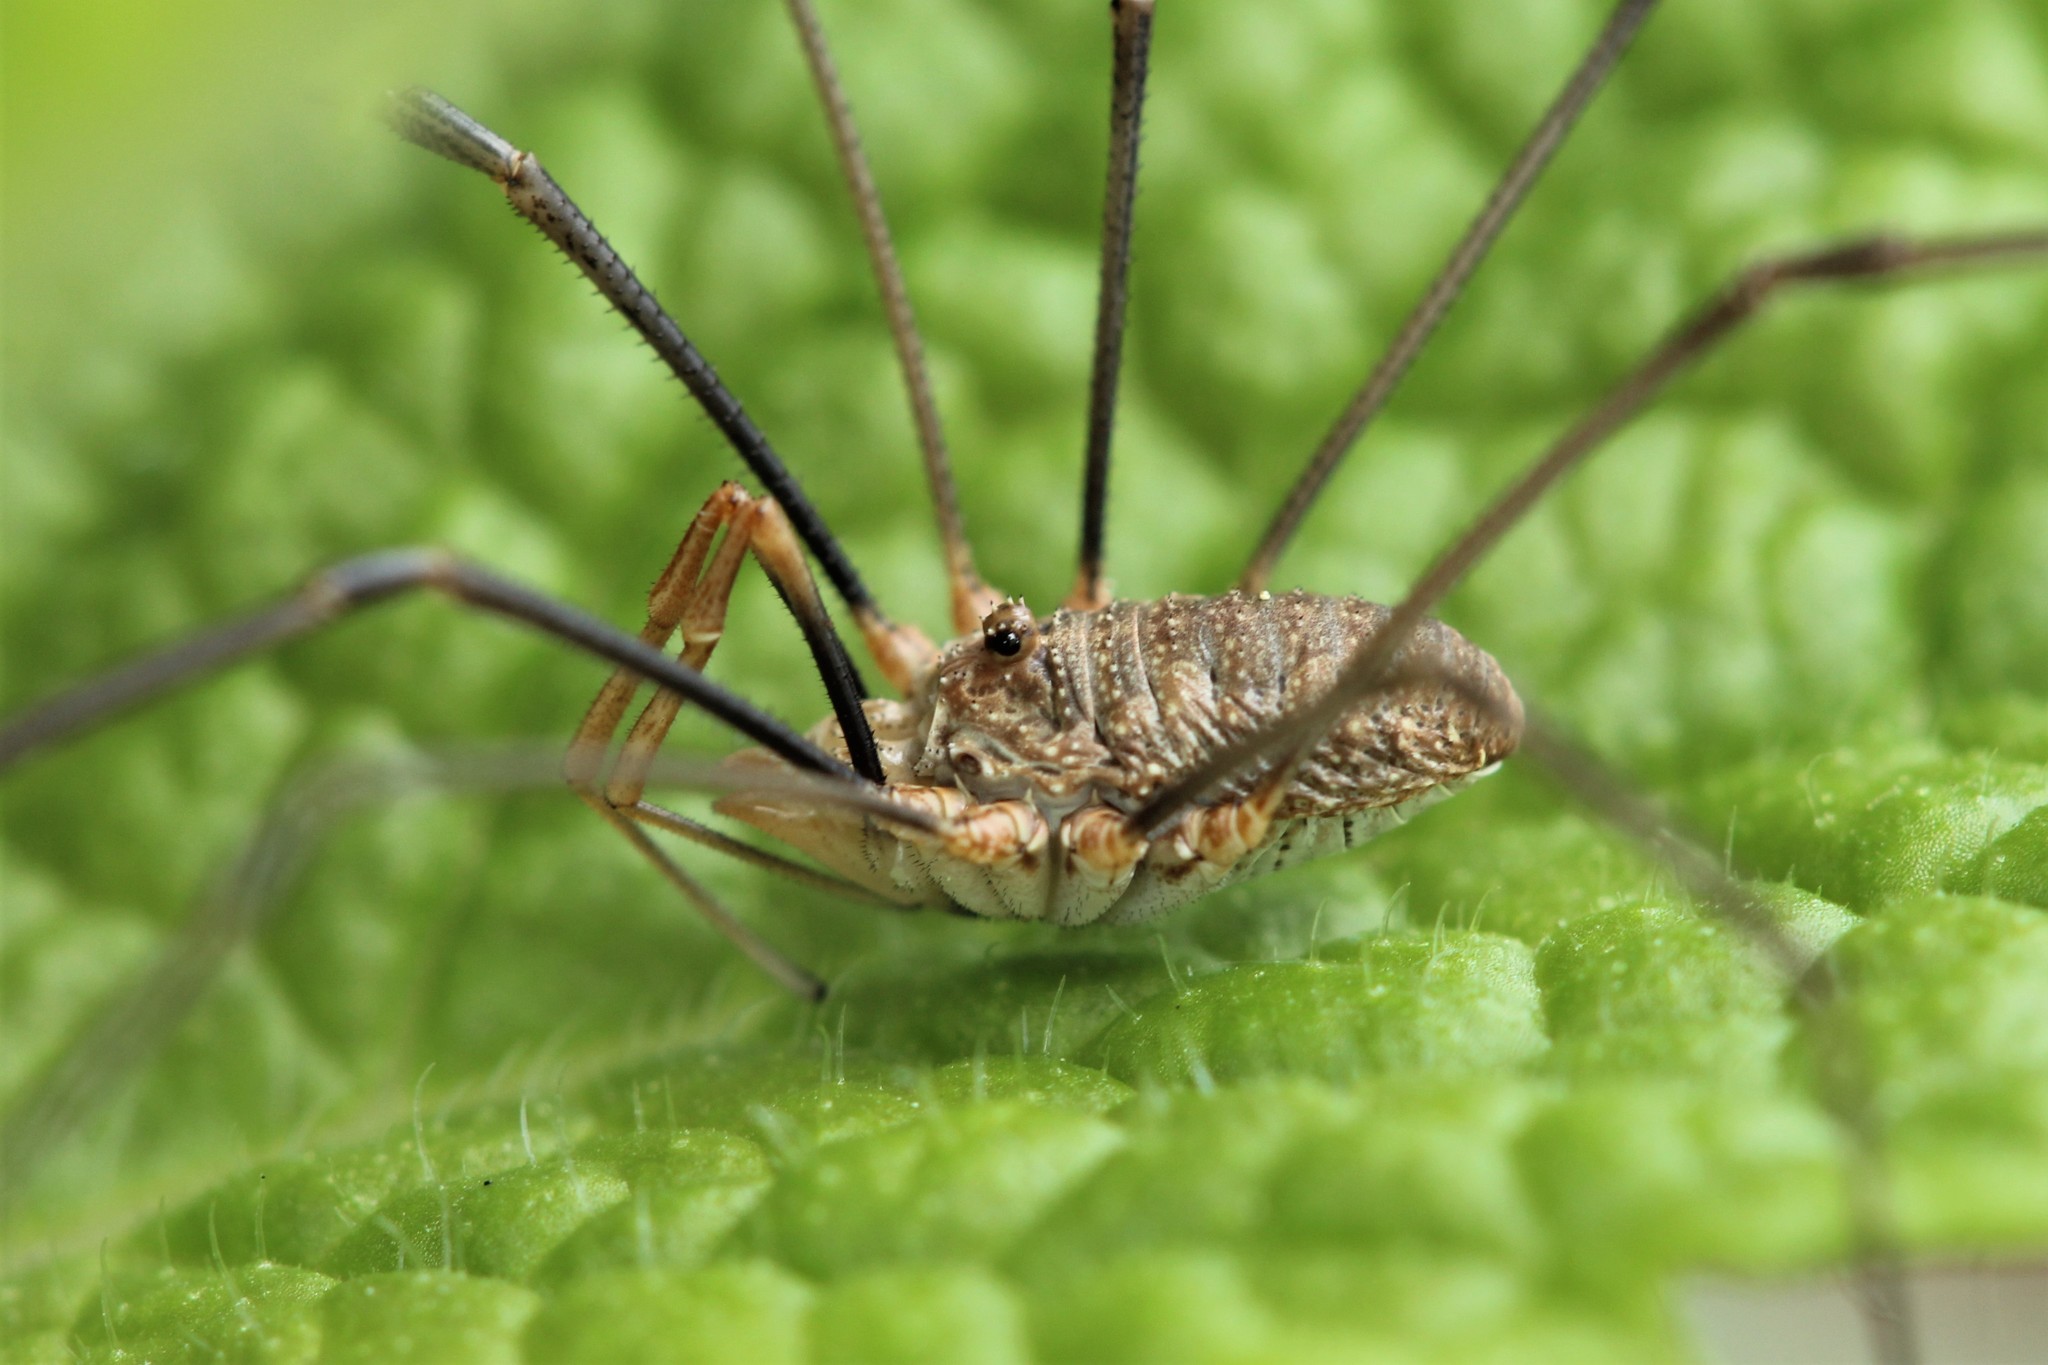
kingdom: Animalia
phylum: Arthropoda
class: Arachnida
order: Opiliones
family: Phalangiidae
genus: Phalangium
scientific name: Phalangium opilio
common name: Daddy longleg
